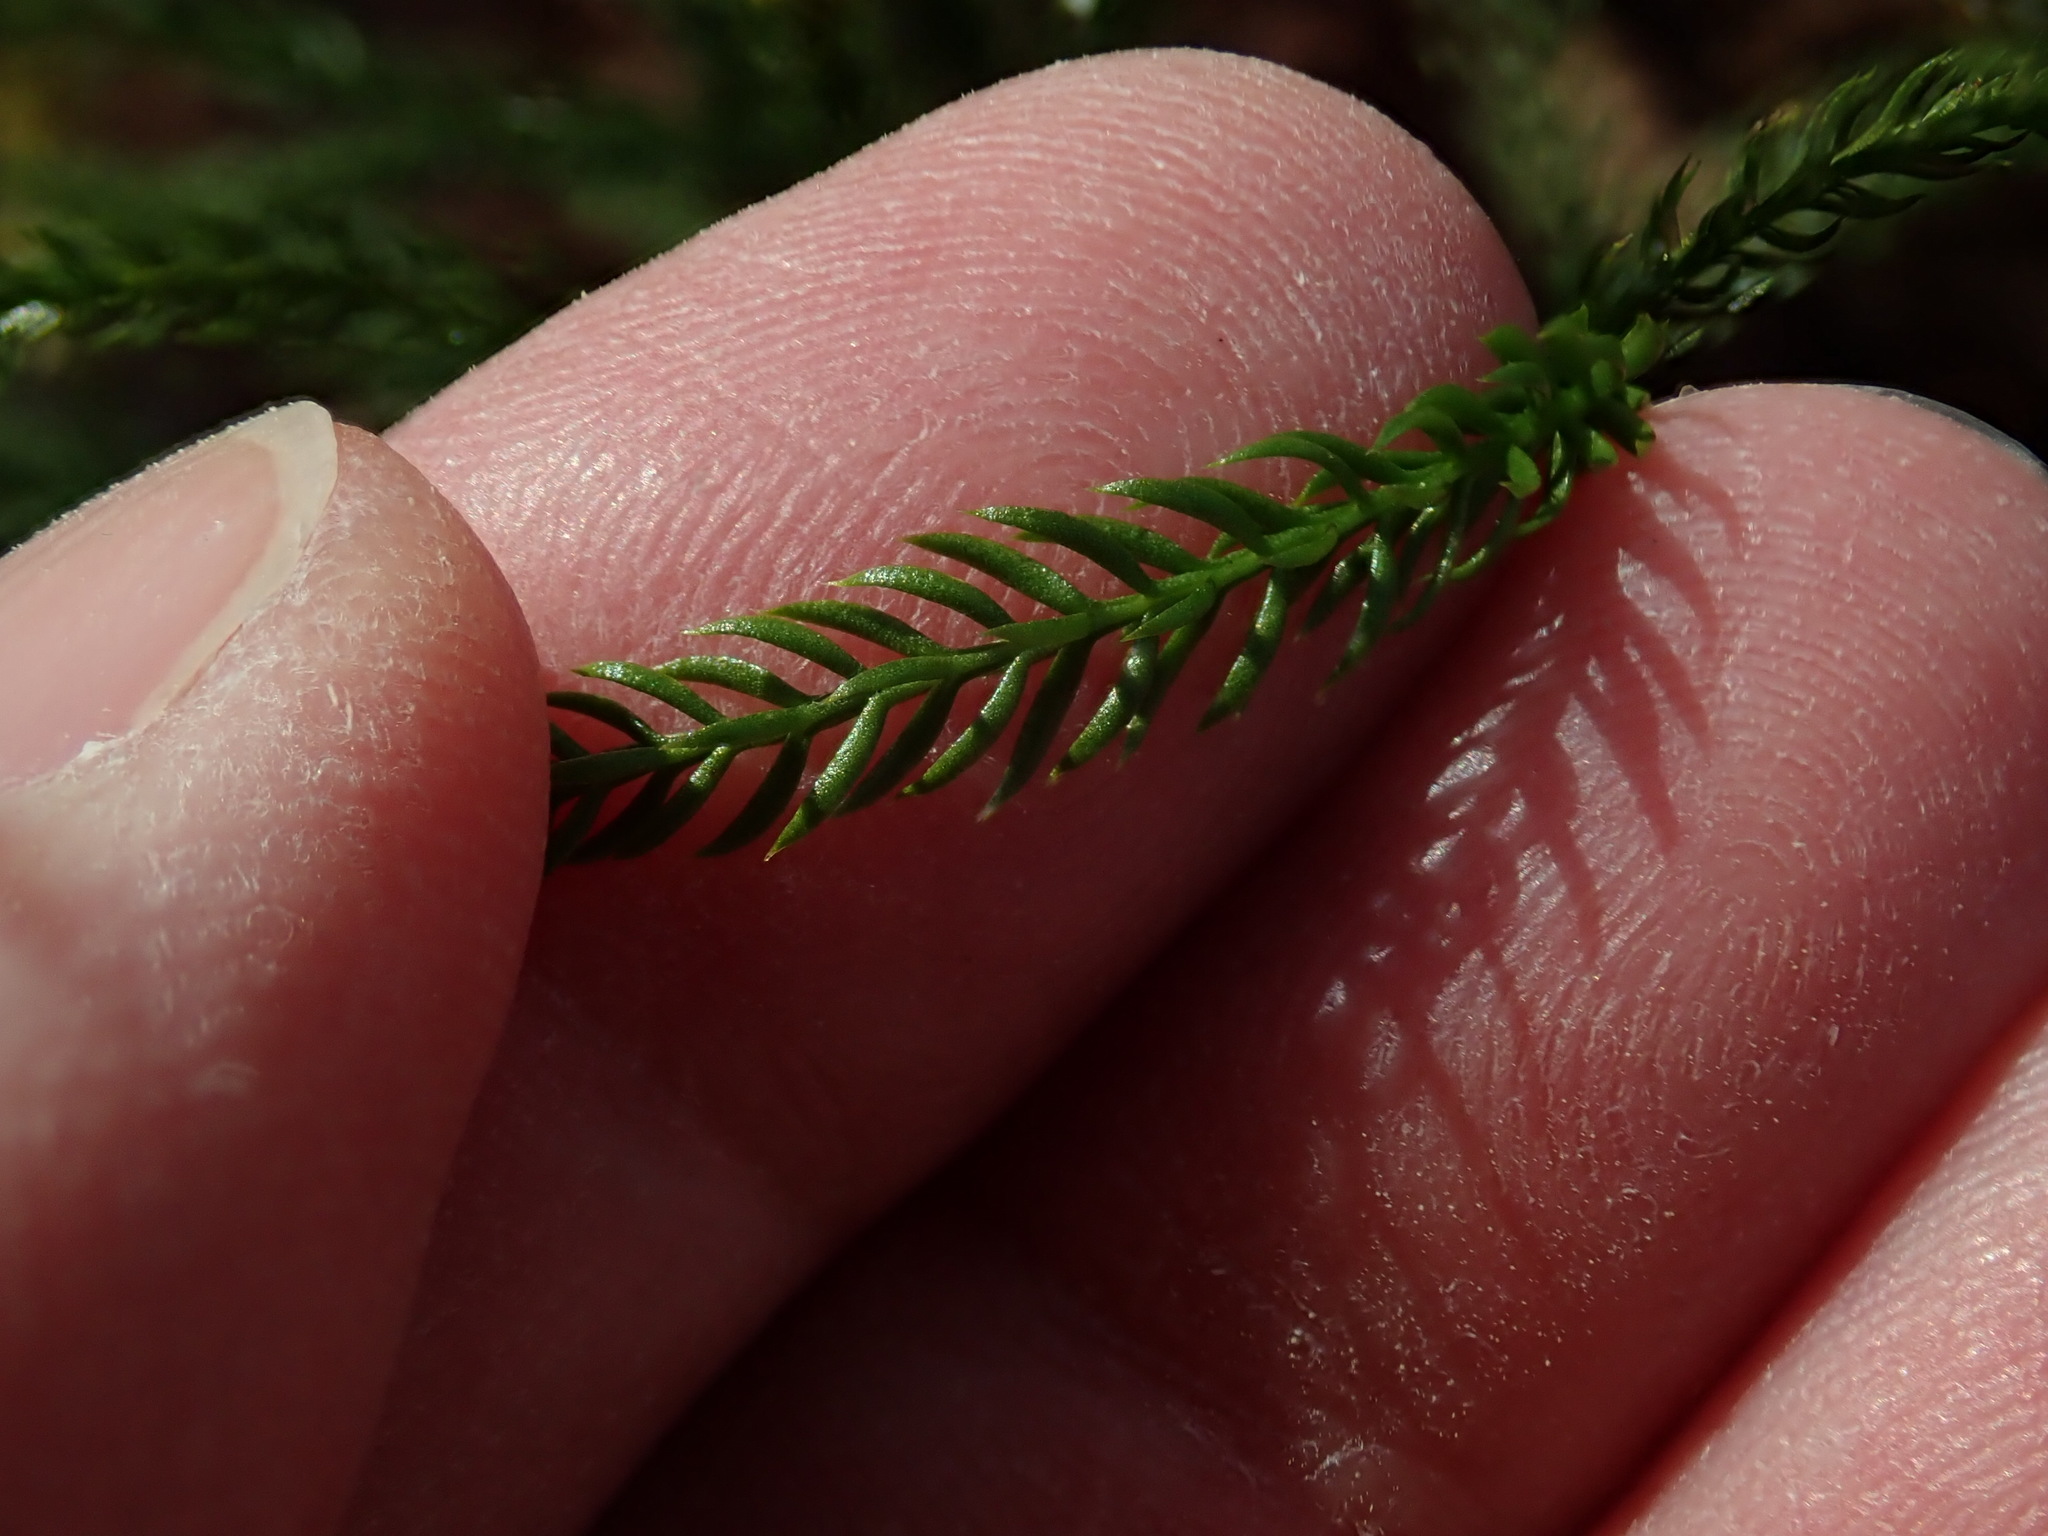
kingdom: Plantae
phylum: Tracheophyta
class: Lycopodiopsida
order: Lycopodiales
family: Lycopodiaceae
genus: Dendrolycopodium
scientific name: Dendrolycopodium obscurum
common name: Common ground-pine
